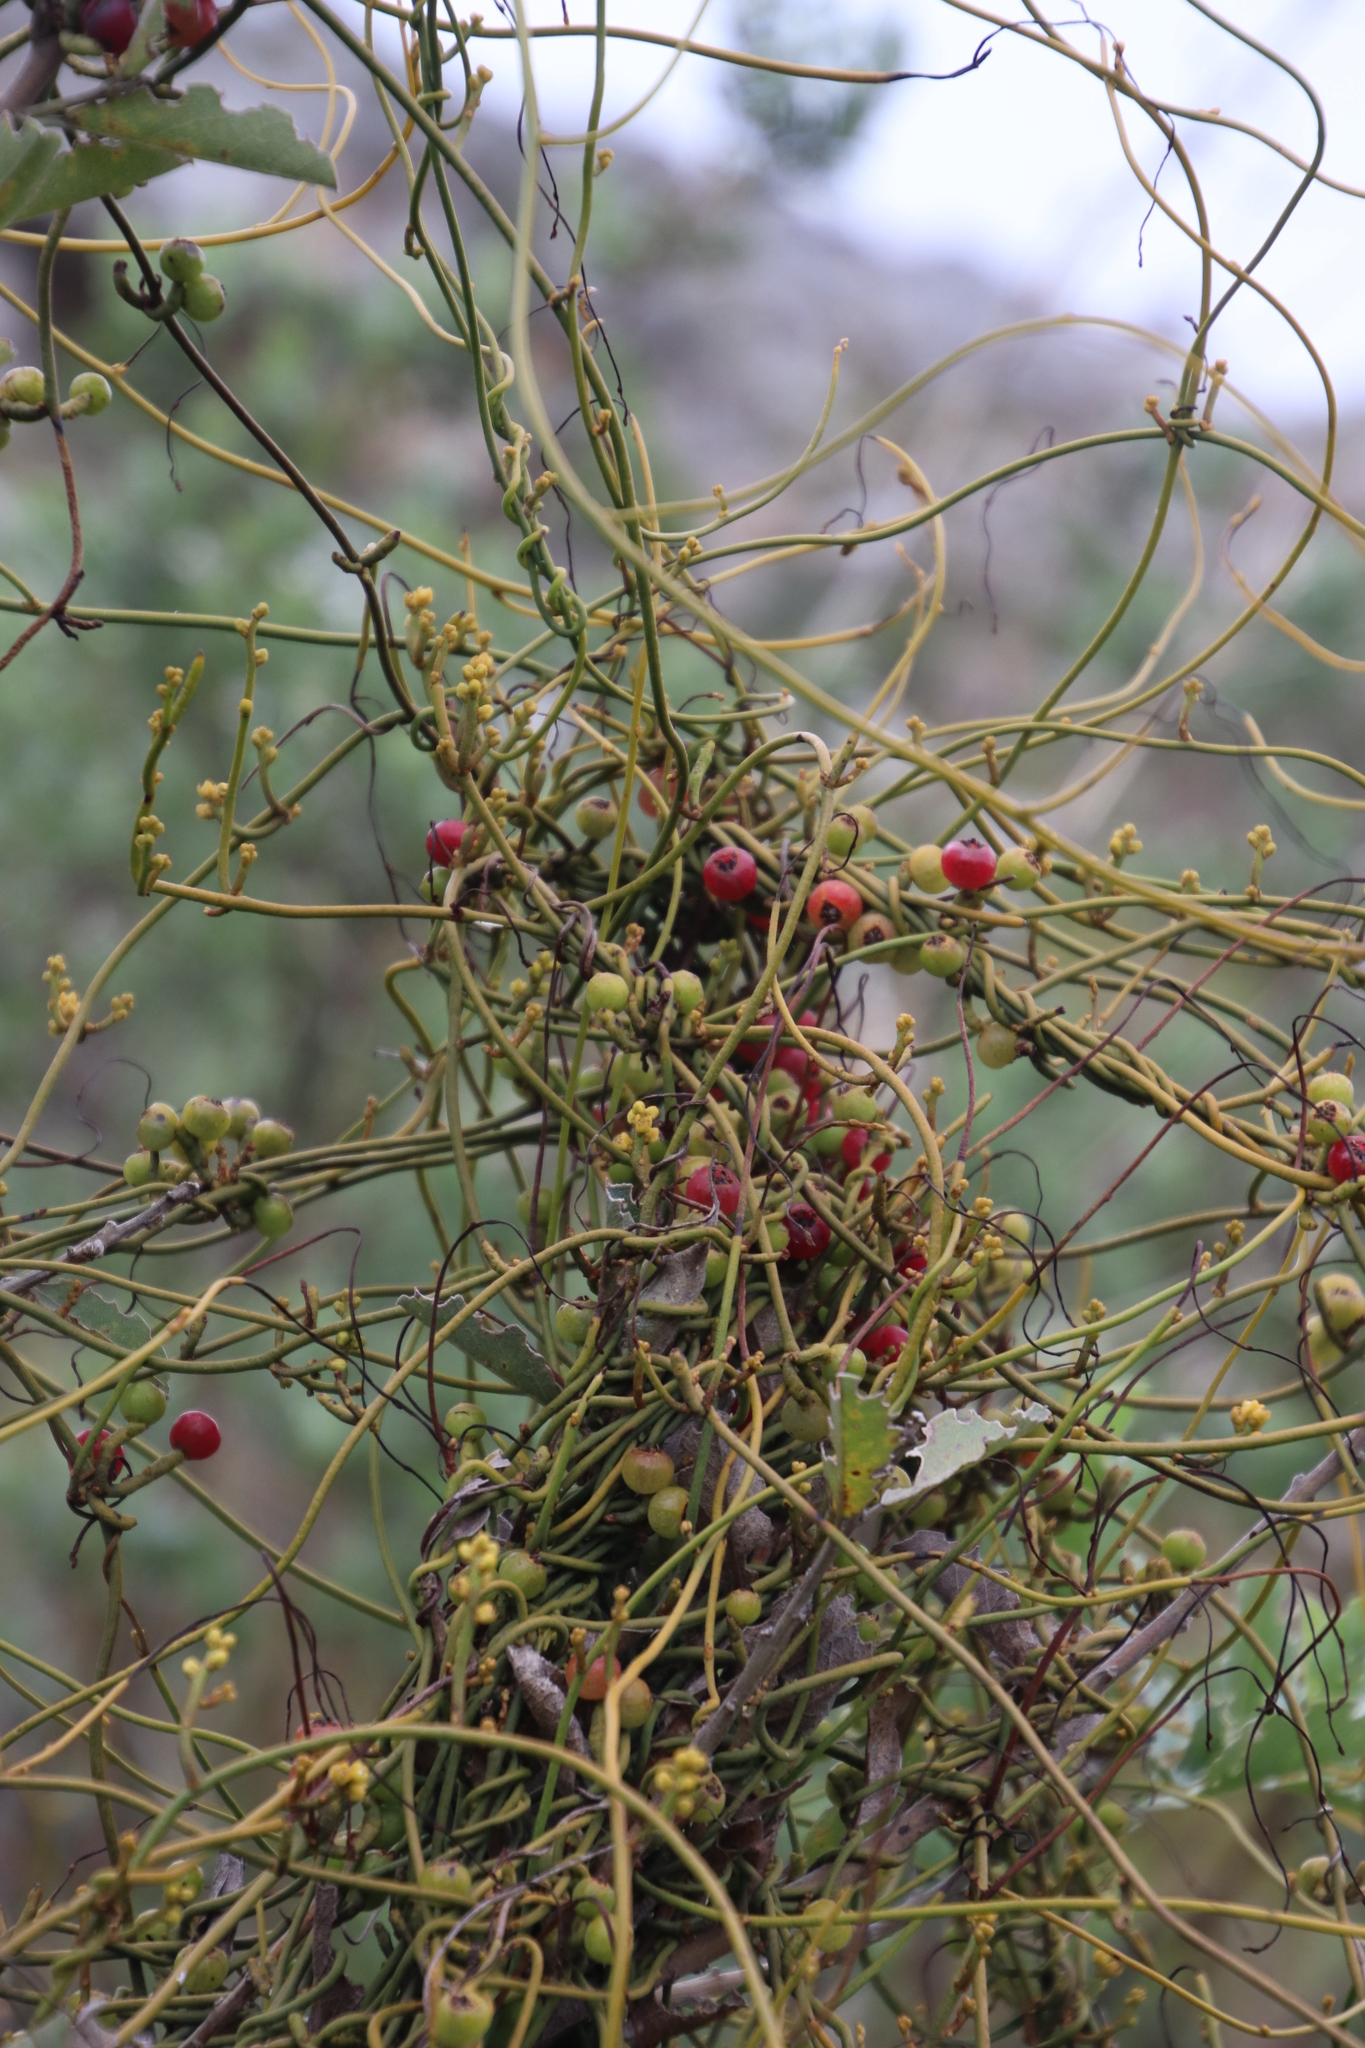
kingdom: Plantae
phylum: Tracheophyta
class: Magnoliopsida
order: Laurales
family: Lauraceae
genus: Cassytha
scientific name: Cassytha ciliolata
